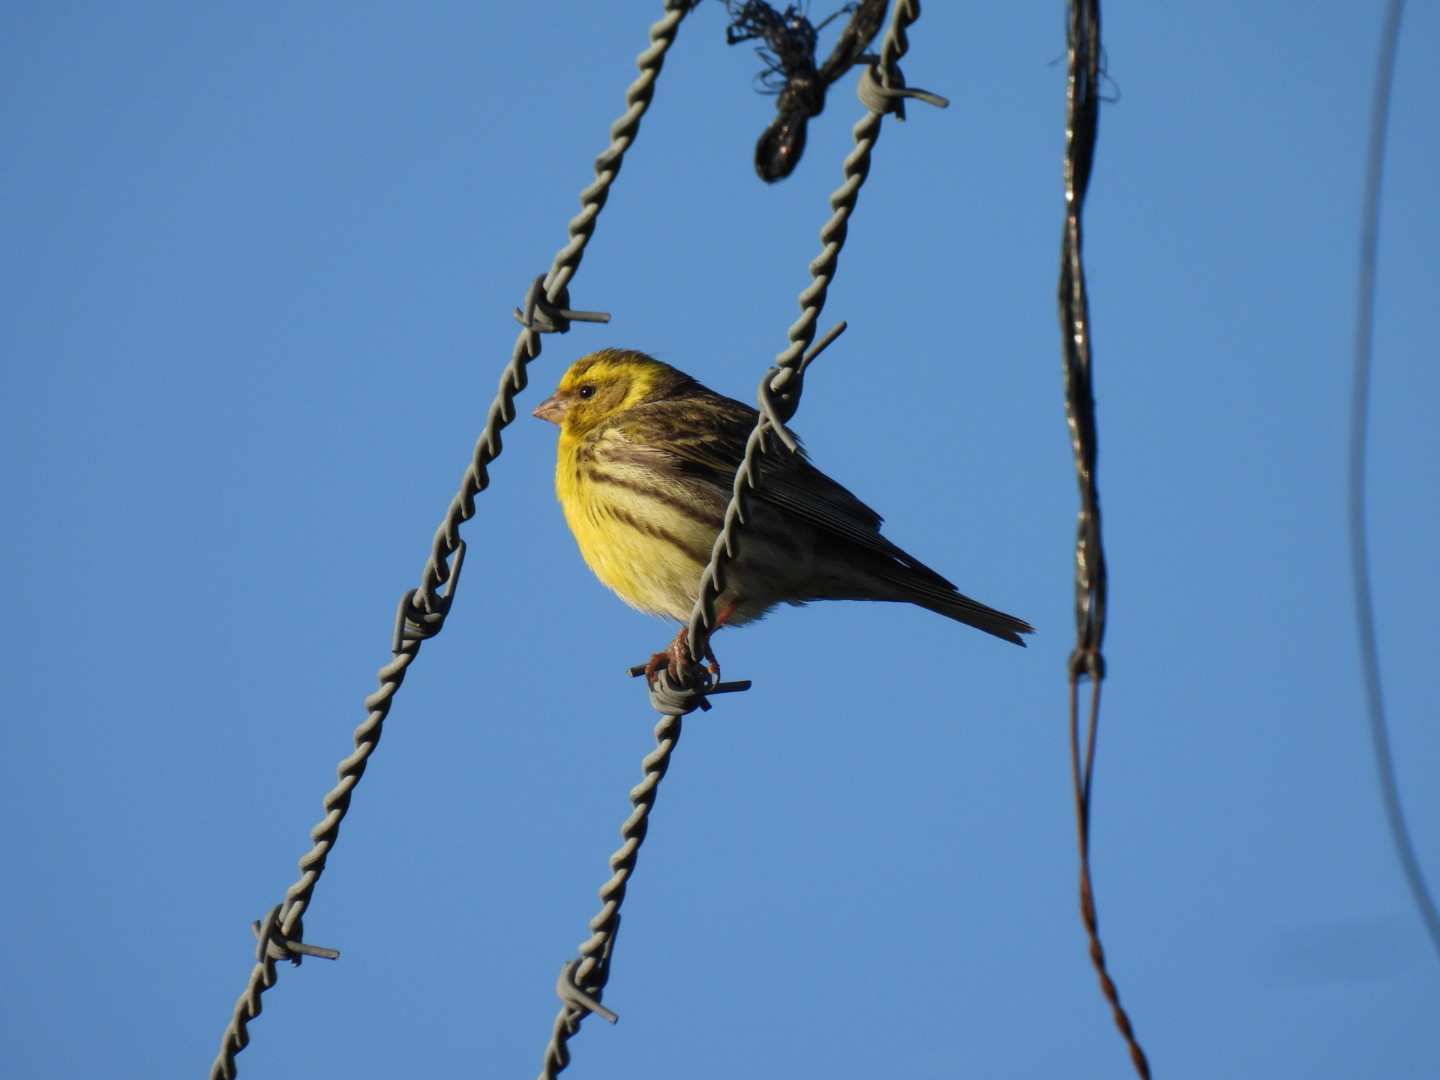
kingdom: Animalia
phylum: Chordata
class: Aves
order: Passeriformes
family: Fringillidae
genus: Serinus
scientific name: Serinus serinus
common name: European serin
